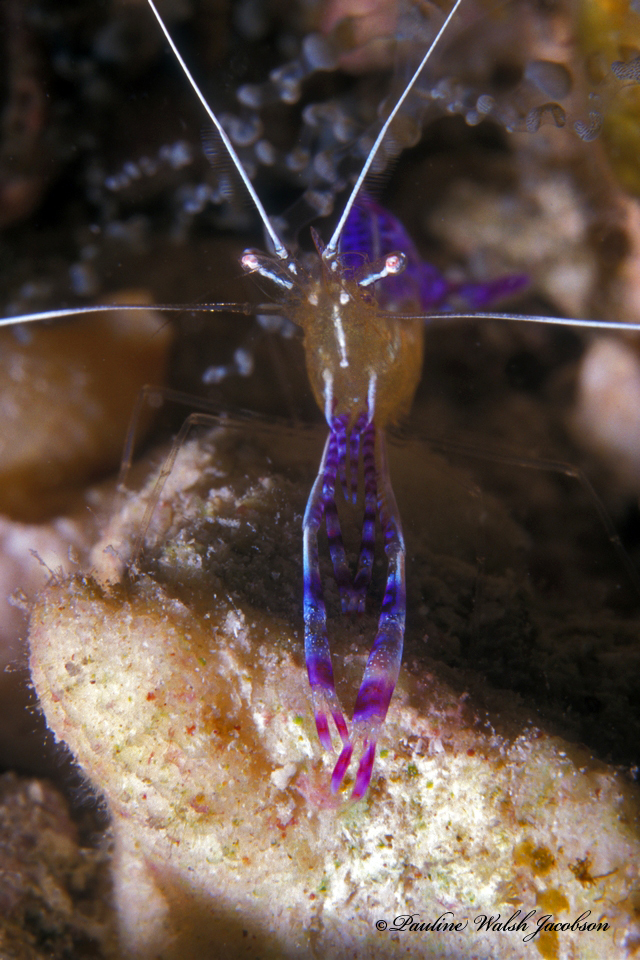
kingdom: Animalia
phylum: Arthropoda
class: Malacostraca
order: Decapoda
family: Palaemonidae
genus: Ancylomenes
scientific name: Ancylomenes pedersoni
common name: Pederson's cleaning shrimp
